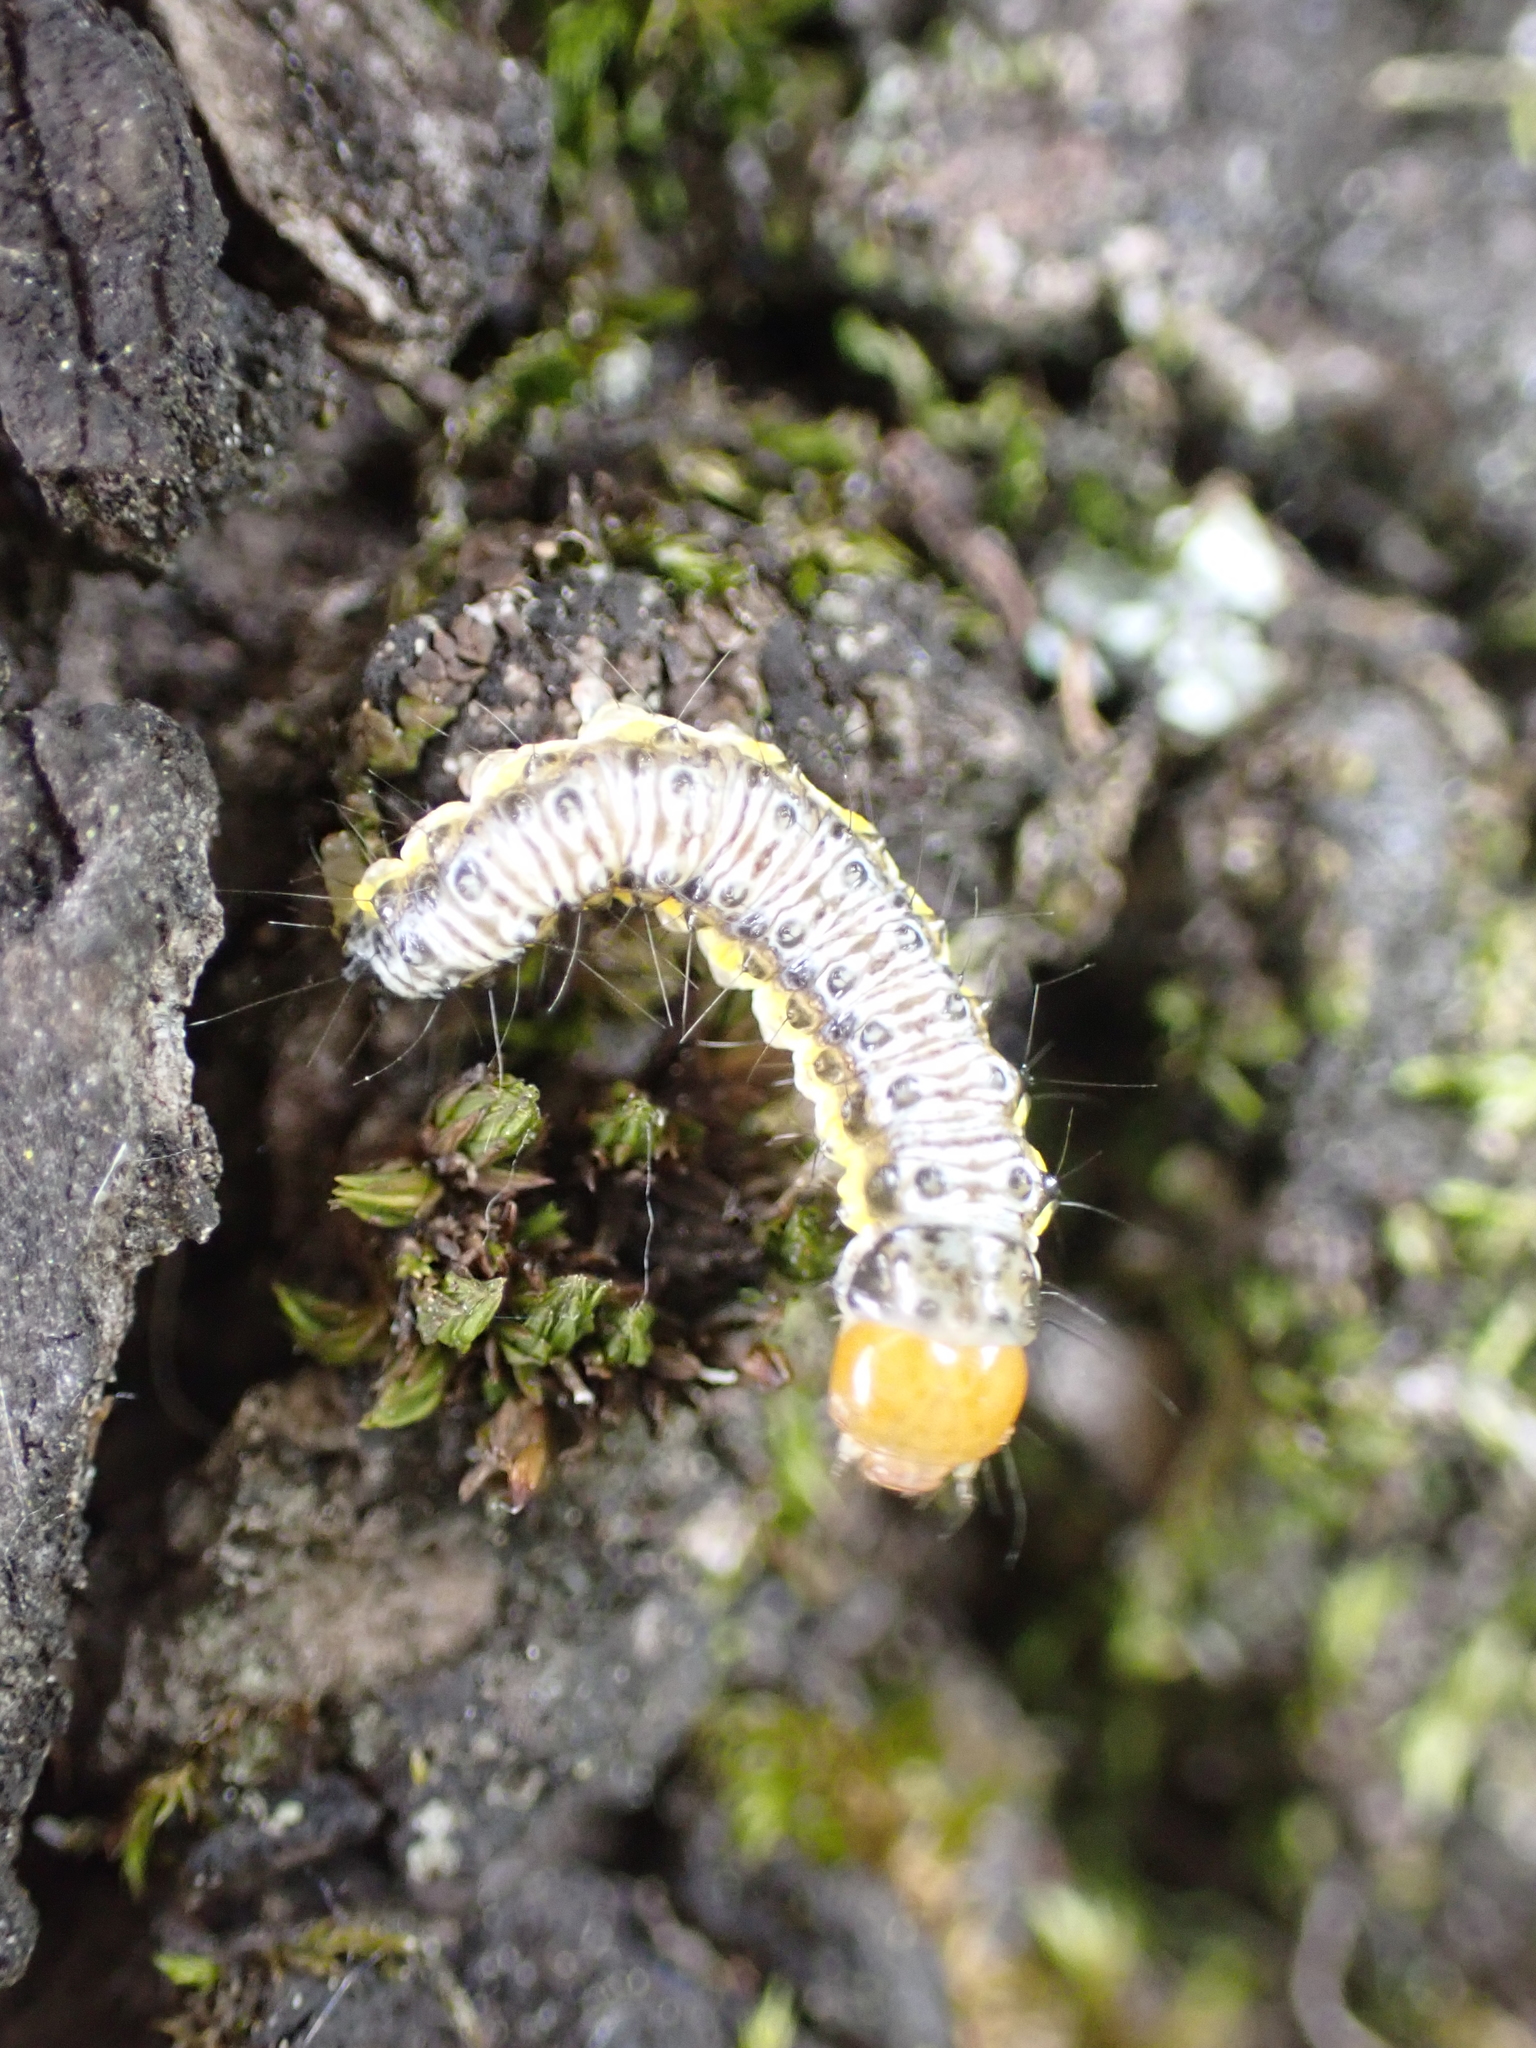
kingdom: Animalia
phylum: Arthropoda
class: Insecta
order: Lepidoptera
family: Crambidae
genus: Evergestis
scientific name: Evergestis rimosalis
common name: Cross-striped cabbageworm moth
